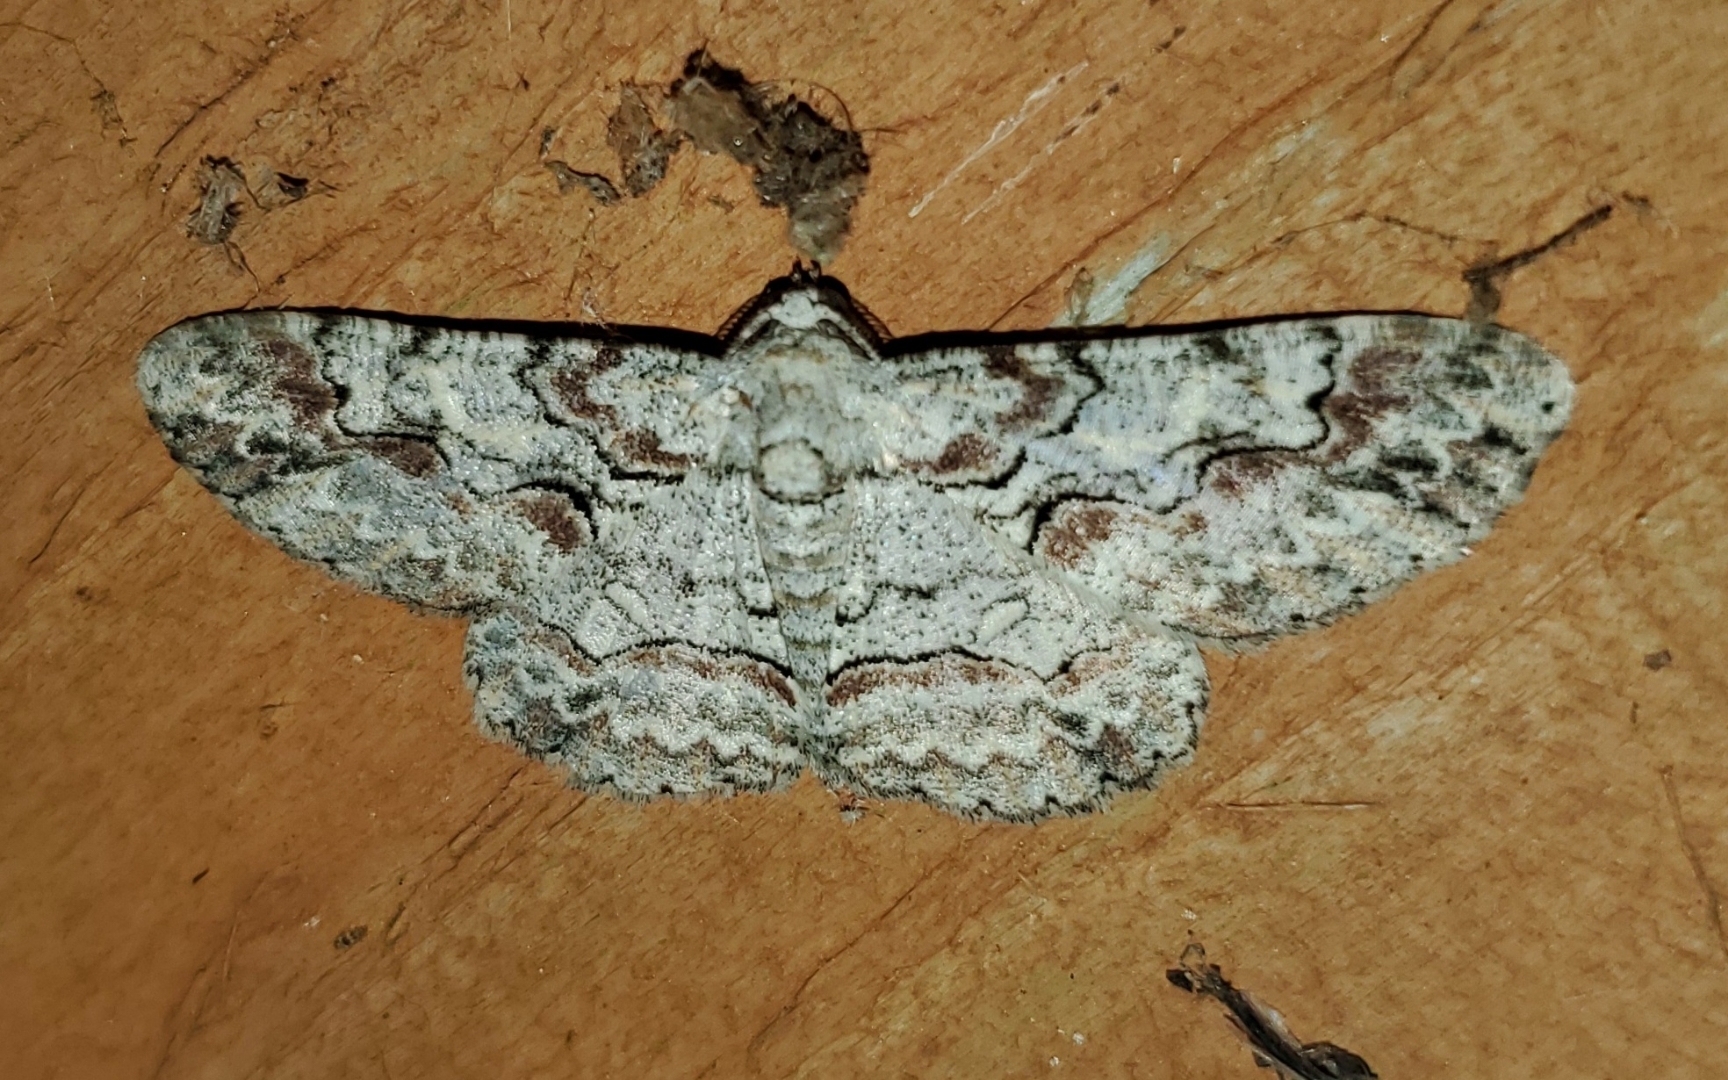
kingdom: Animalia
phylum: Arthropoda
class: Insecta
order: Lepidoptera
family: Geometridae
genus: Iridopsis
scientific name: Iridopsis defectaria
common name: Brown-shaded gray
